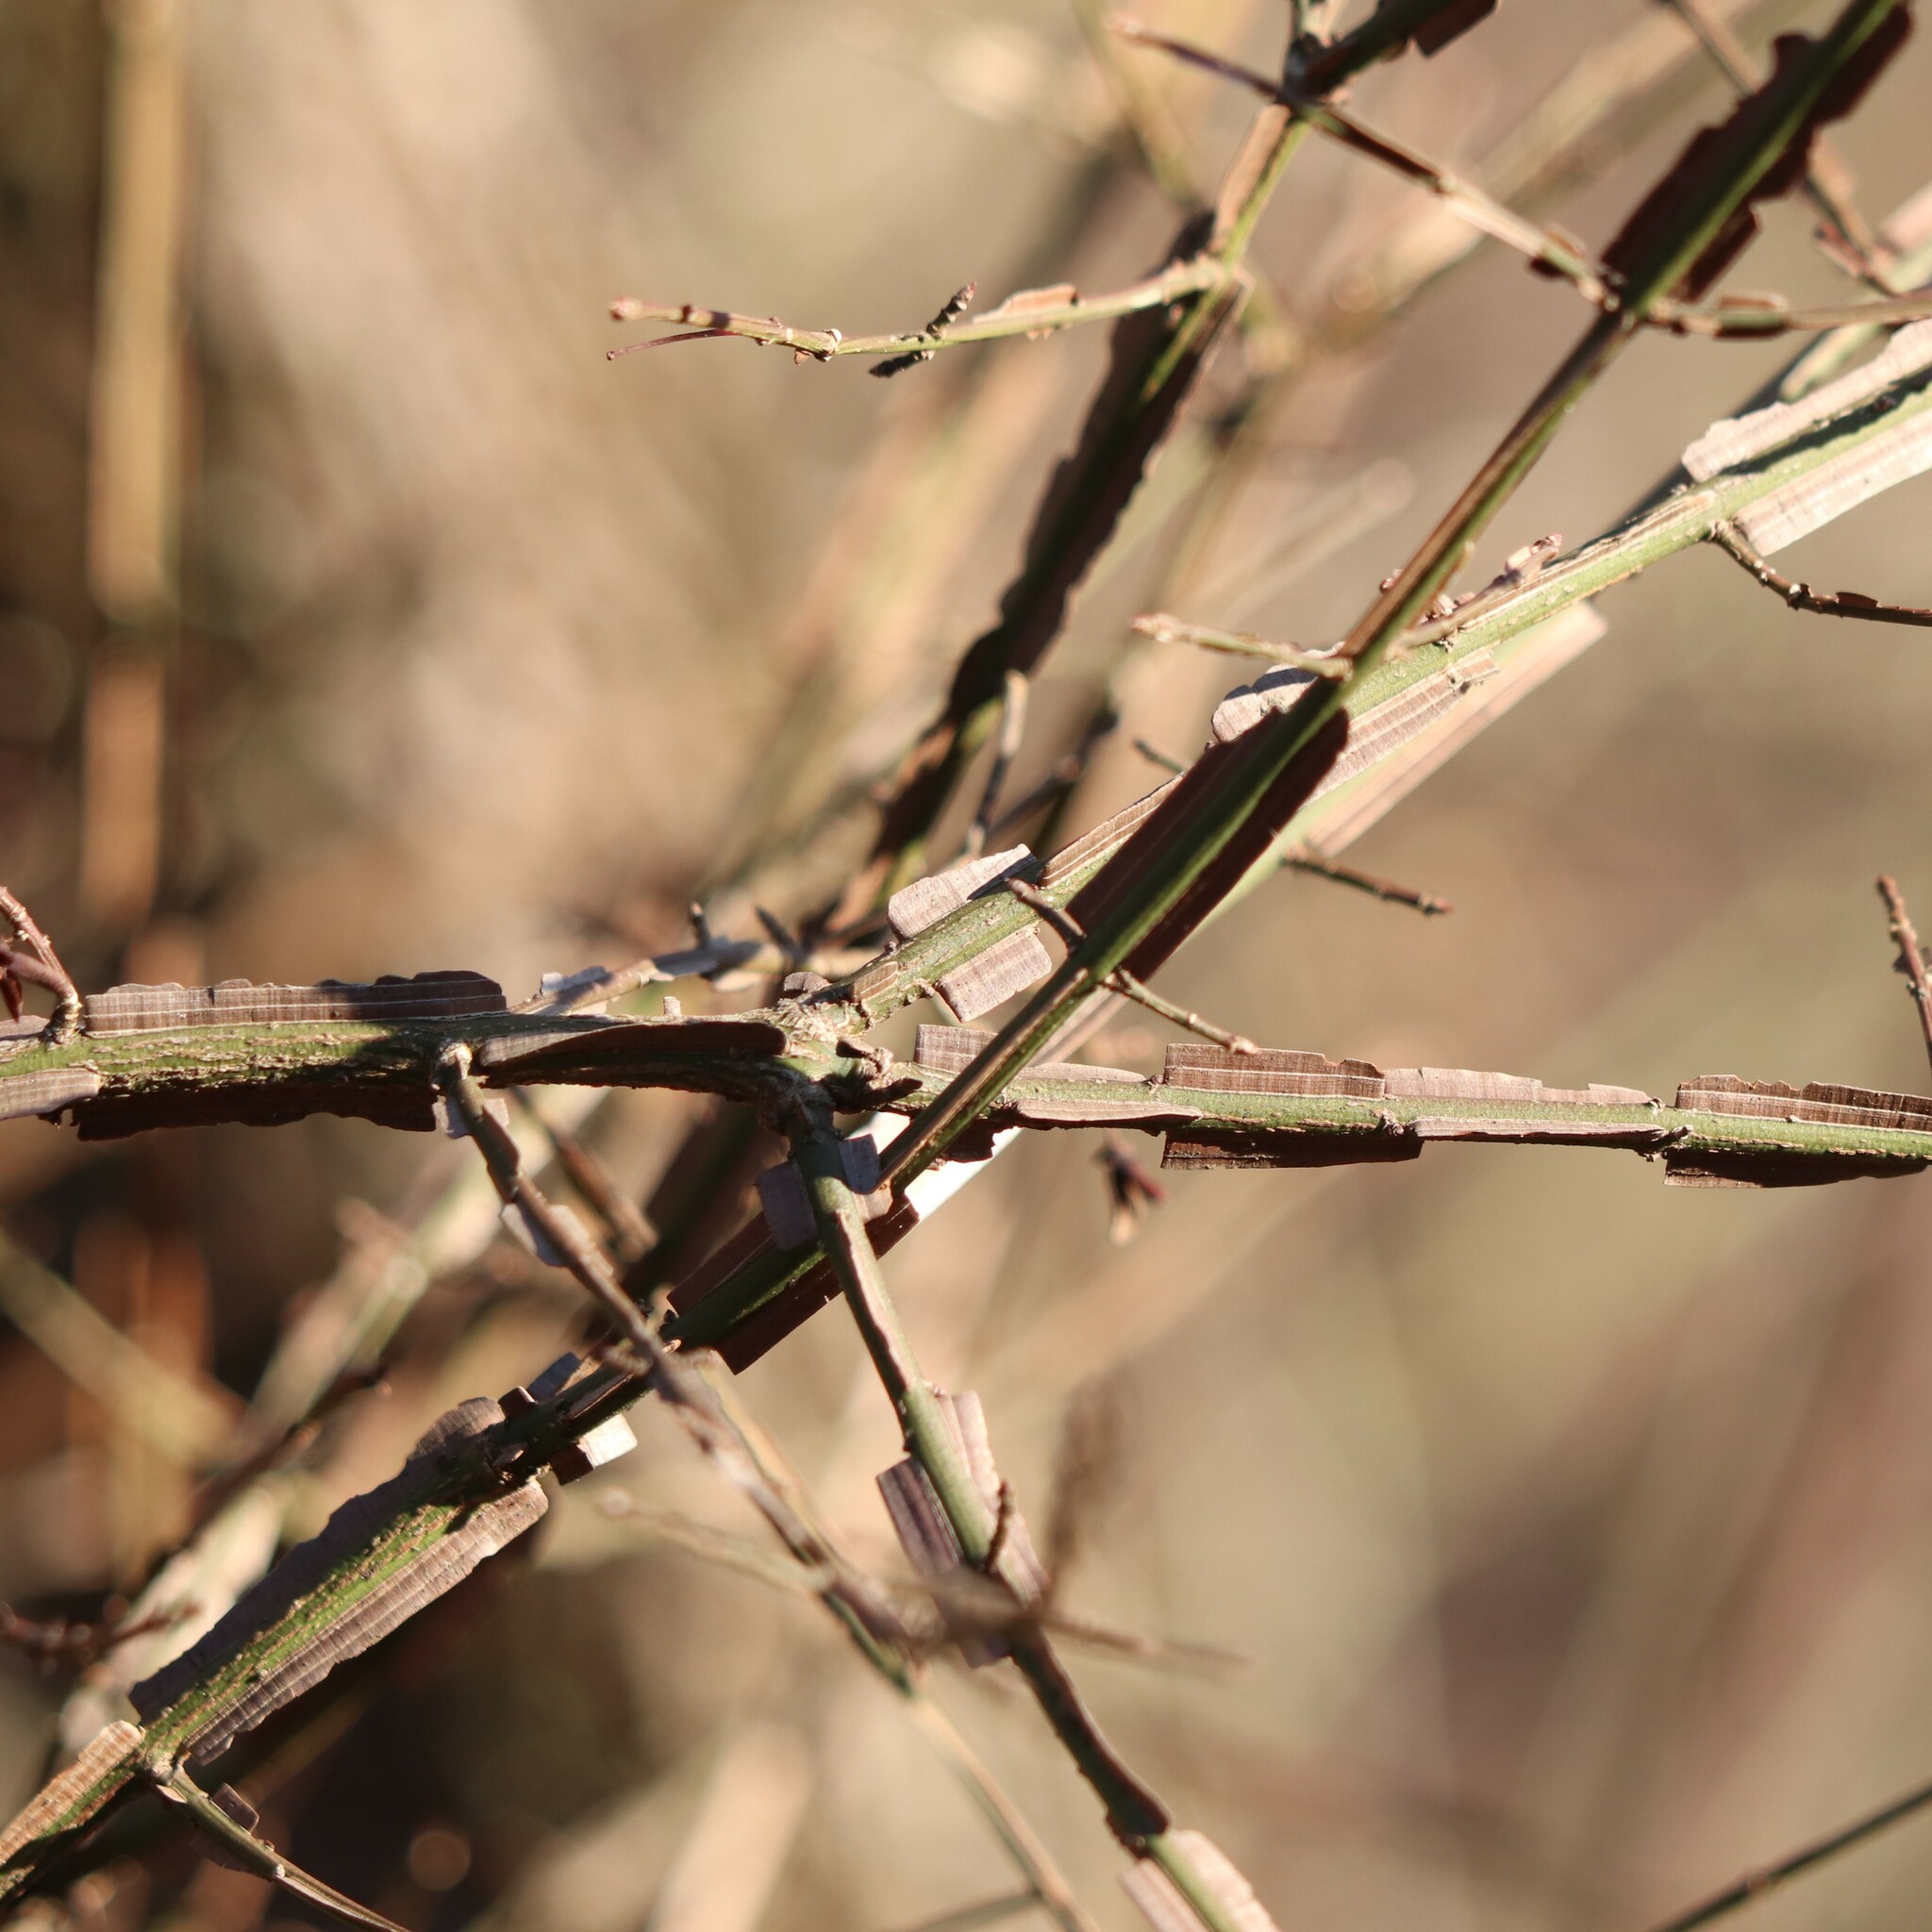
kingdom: Plantae
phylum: Tracheophyta
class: Magnoliopsida
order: Celastrales
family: Celastraceae
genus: Euonymus
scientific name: Euonymus alatus
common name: Winged euonymus
